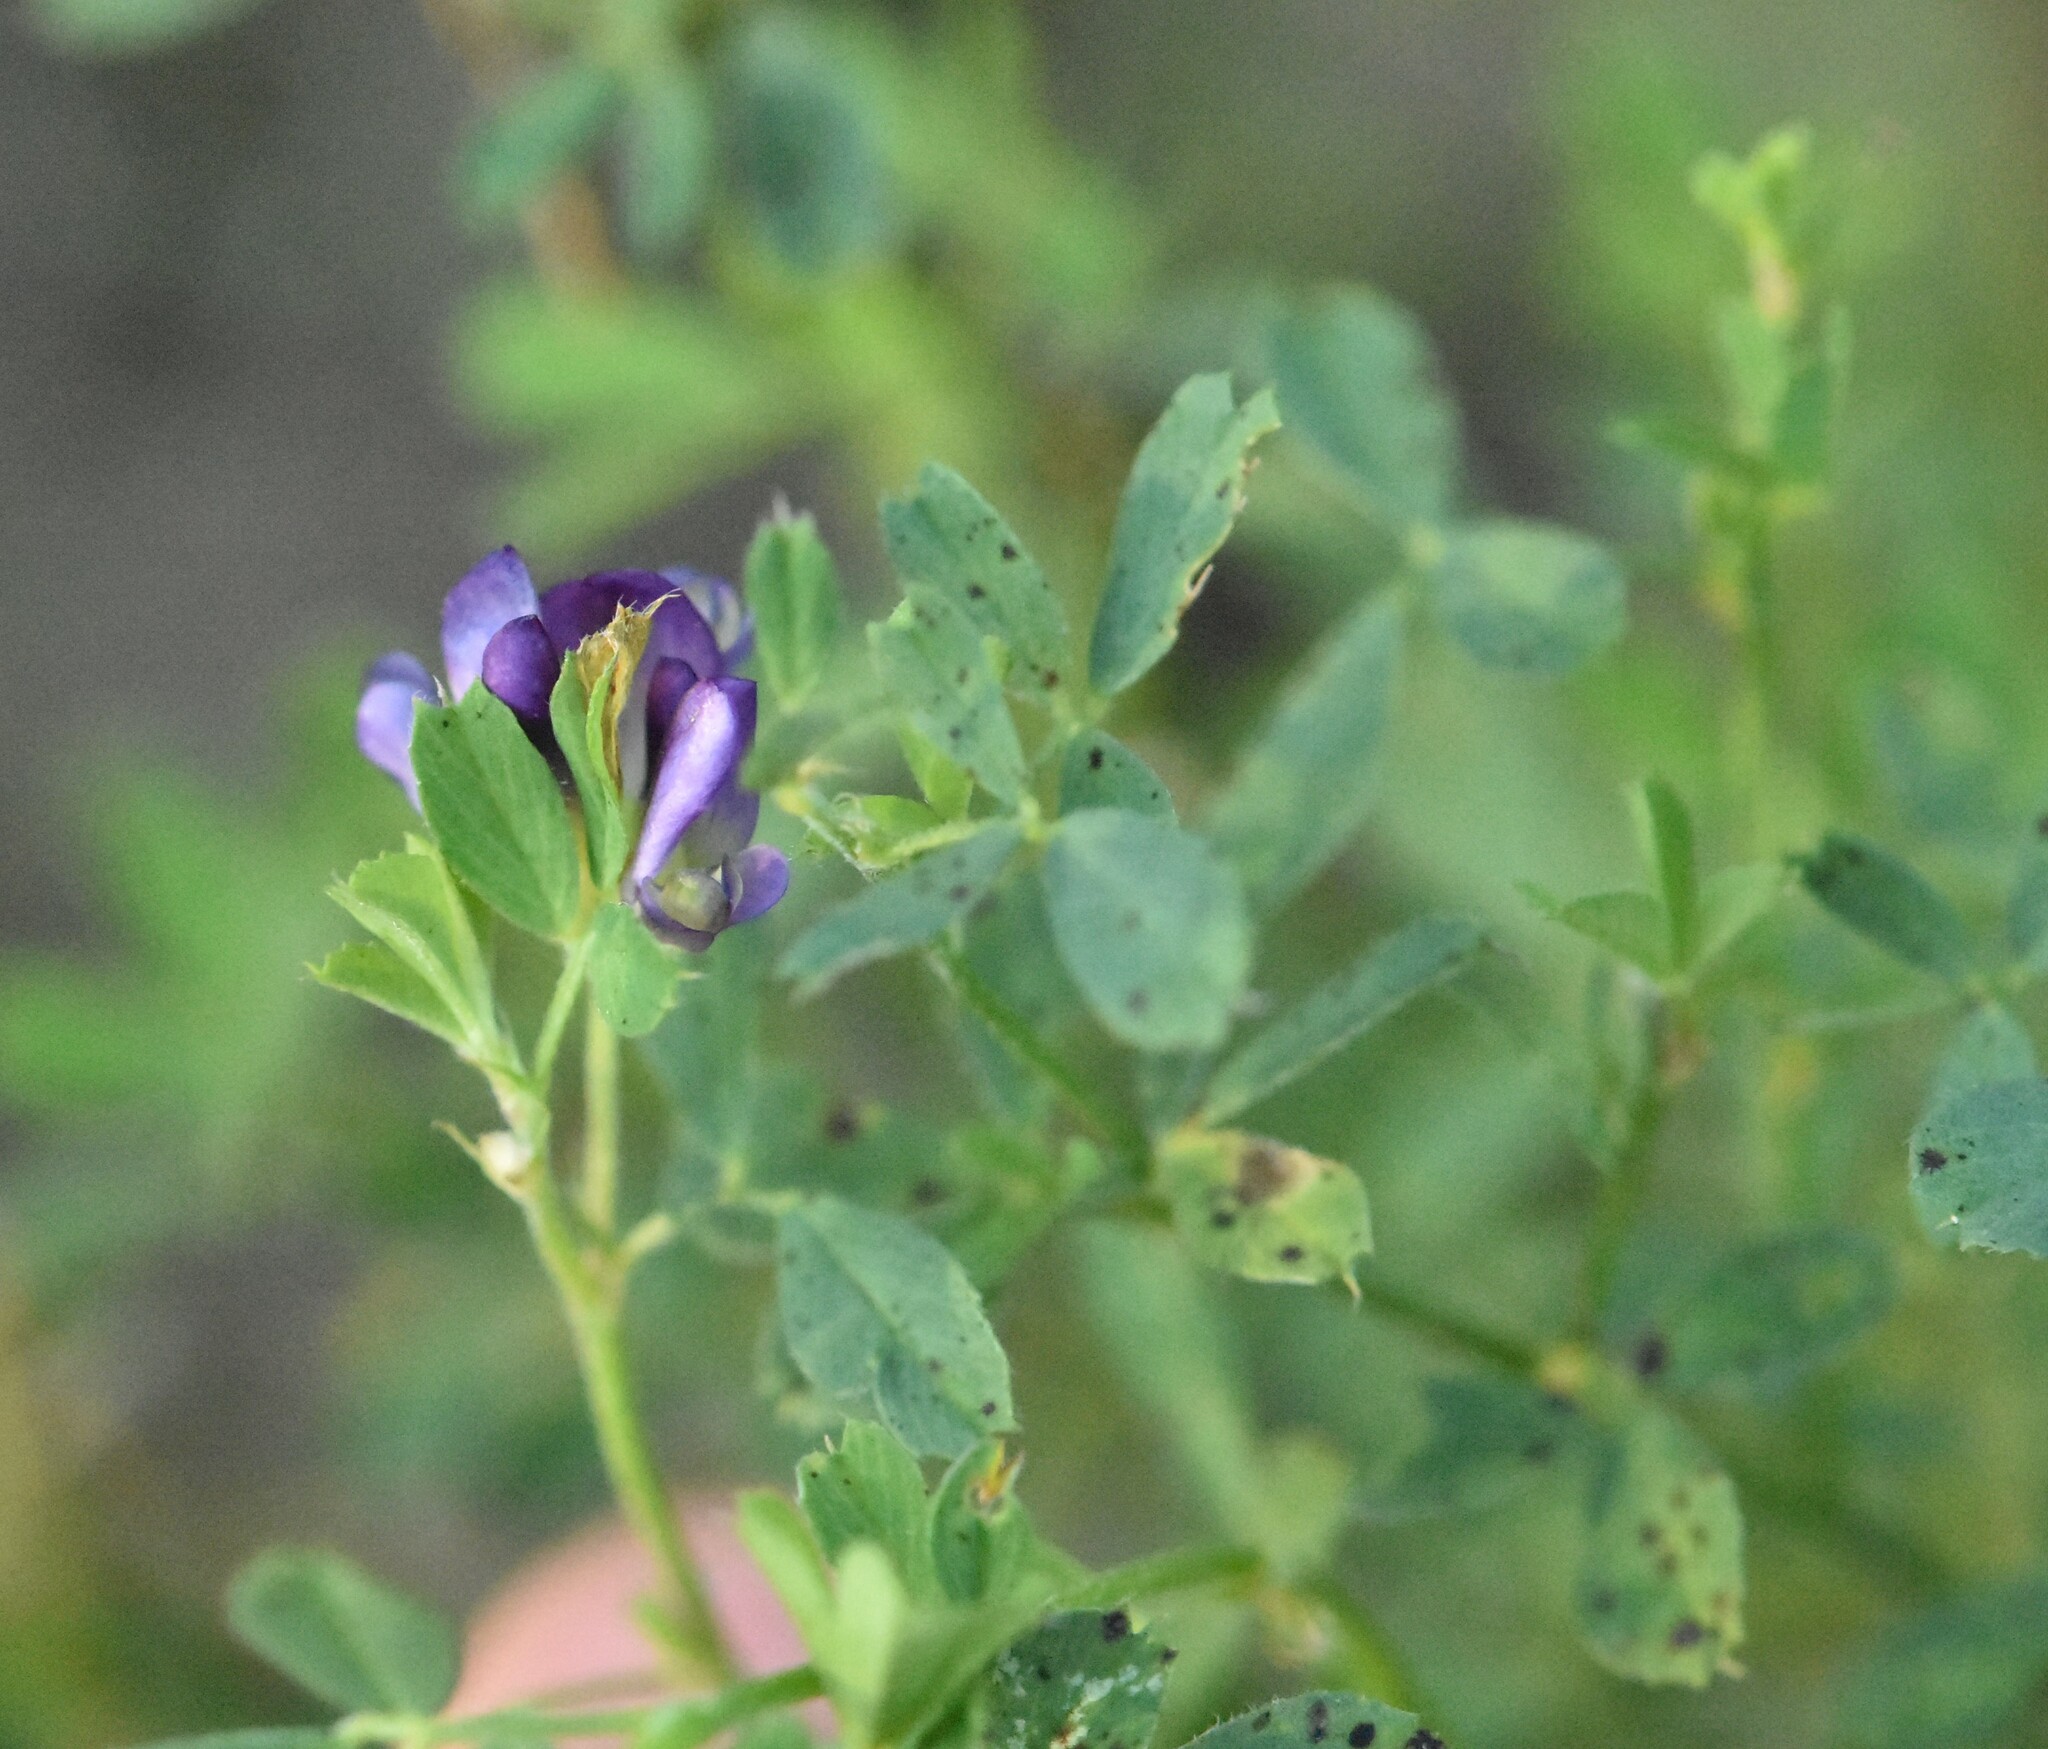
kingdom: Plantae
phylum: Tracheophyta
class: Magnoliopsida
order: Fabales
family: Fabaceae
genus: Medicago
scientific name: Medicago sativa
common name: Alfalfa
